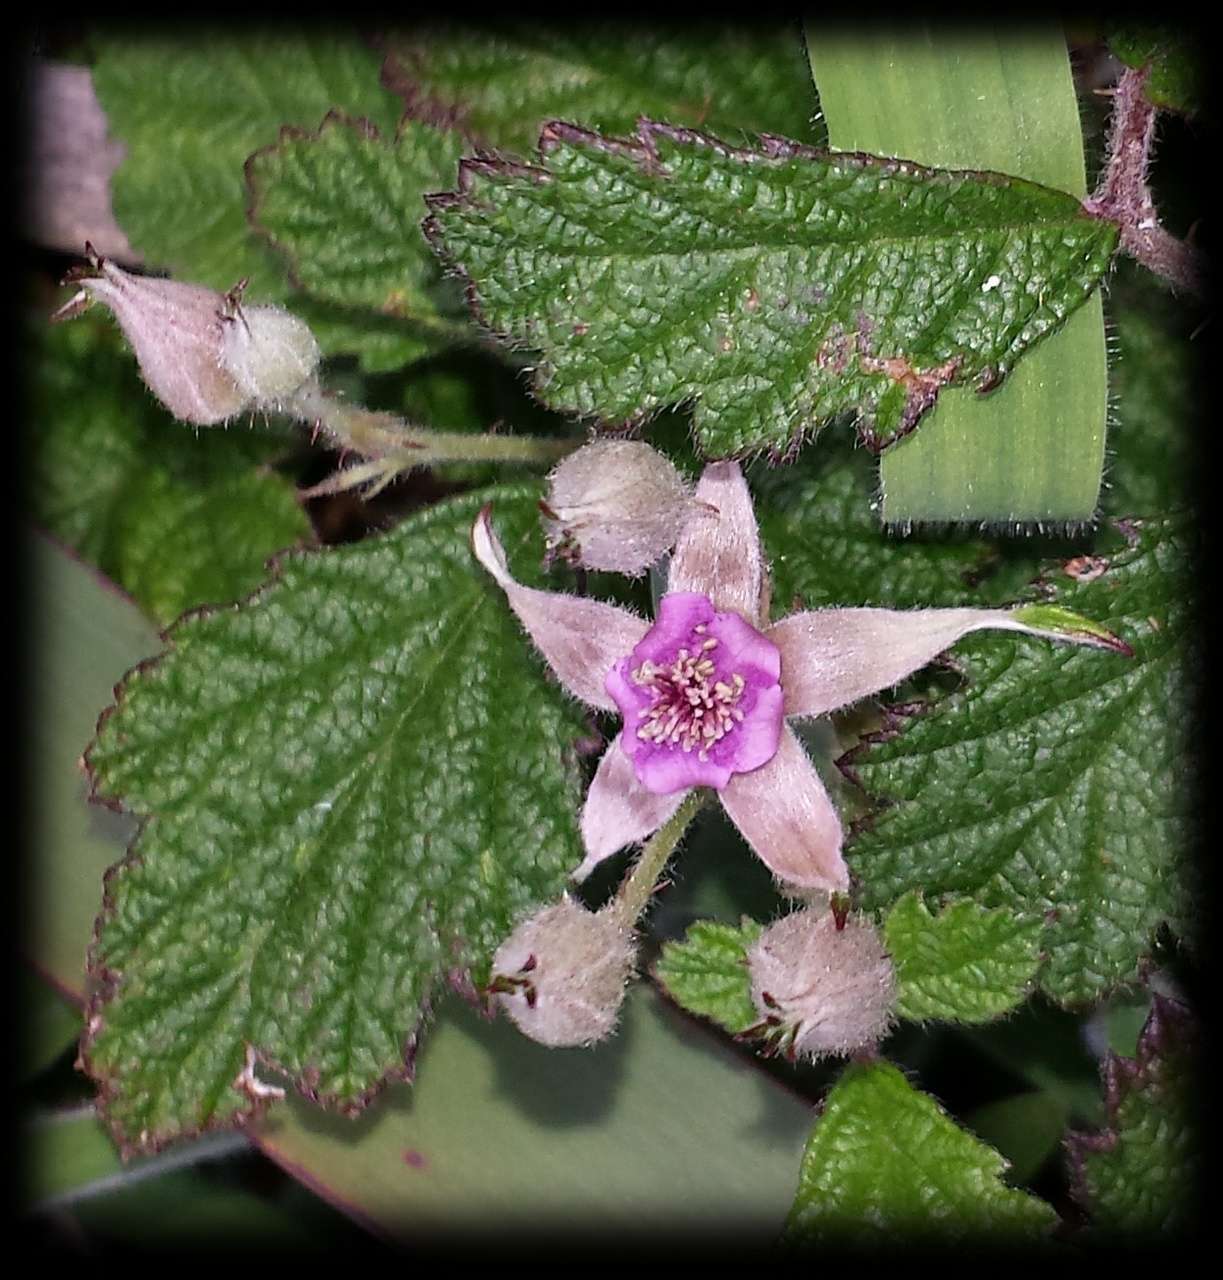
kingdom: Plantae
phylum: Tracheophyta
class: Magnoliopsida
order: Rosales
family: Rosaceae
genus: Rubus
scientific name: Rubus parvifolius
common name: Threeleaf blackberry
